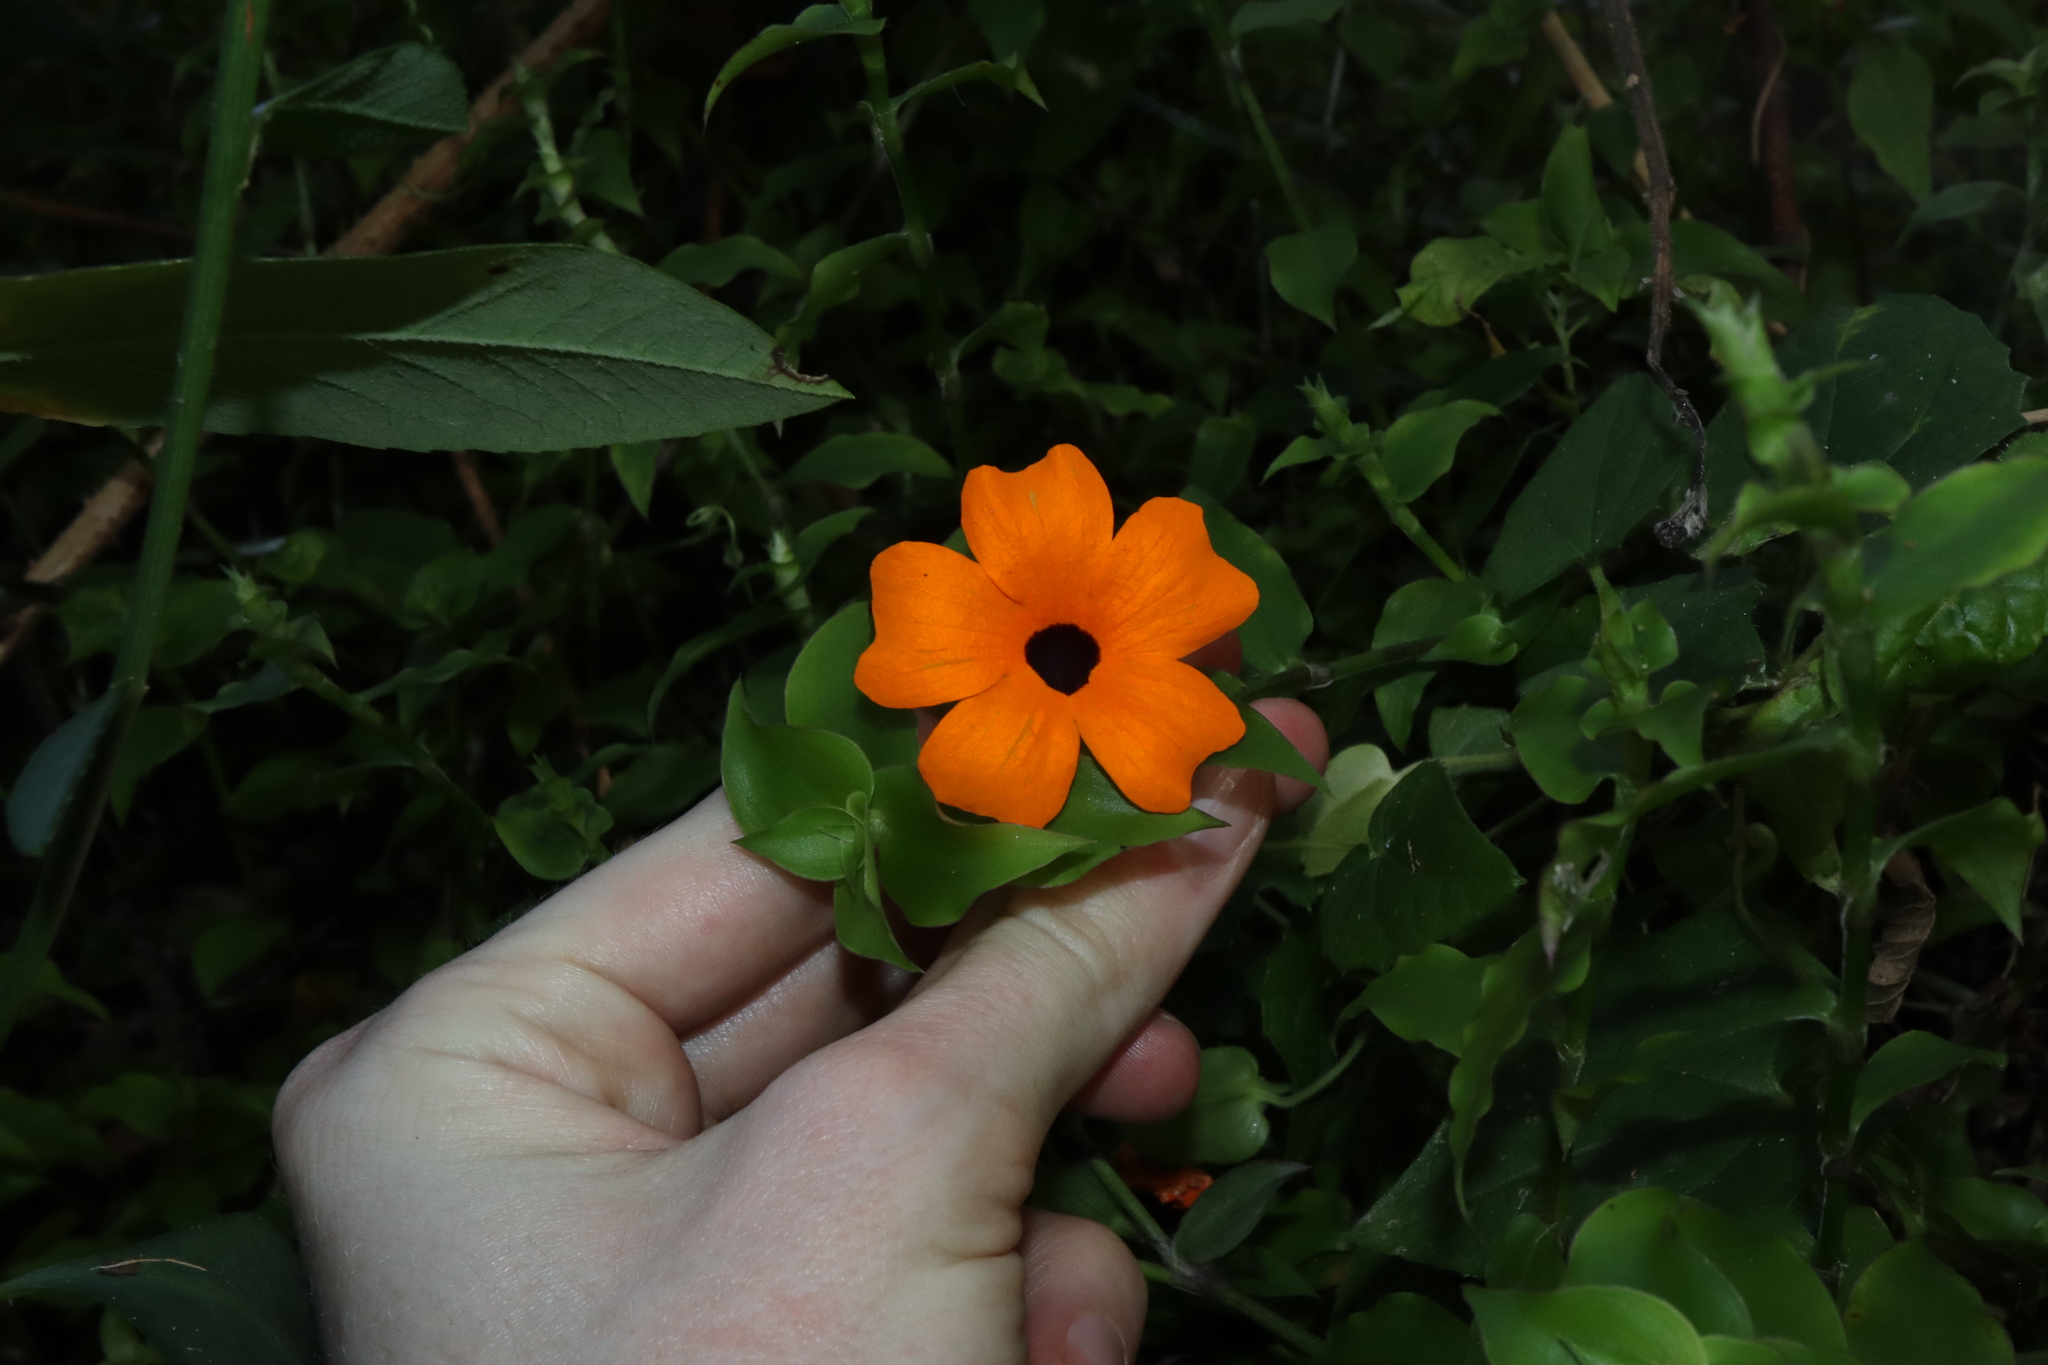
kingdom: Plantae
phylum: Tracheophyta
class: Magnoliopsida
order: Lamiales
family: Acanthaceae
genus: Thunbergia
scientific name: Thunbergia alata
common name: Blackeyed susan vine
